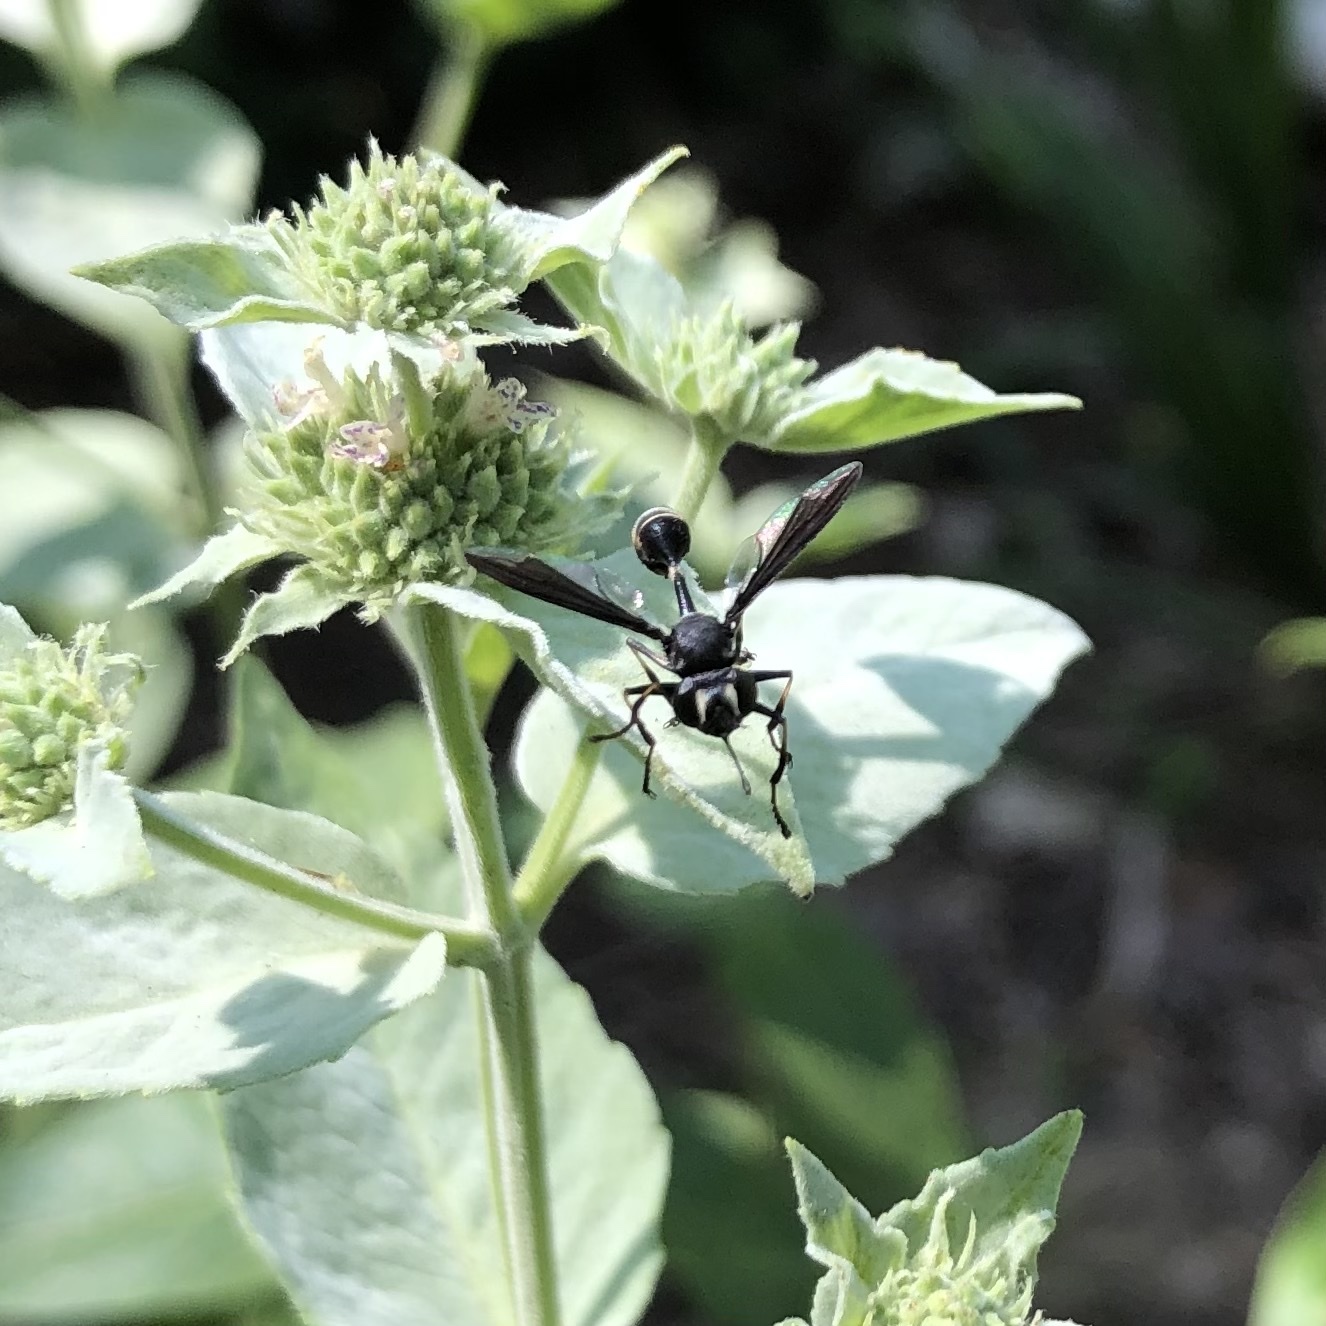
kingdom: Animalia
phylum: Arthropoda
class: Insecta
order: Diptera
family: Conopidae
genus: Physocephala
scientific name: Physocephala tibialis
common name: Common eastern physocephala
